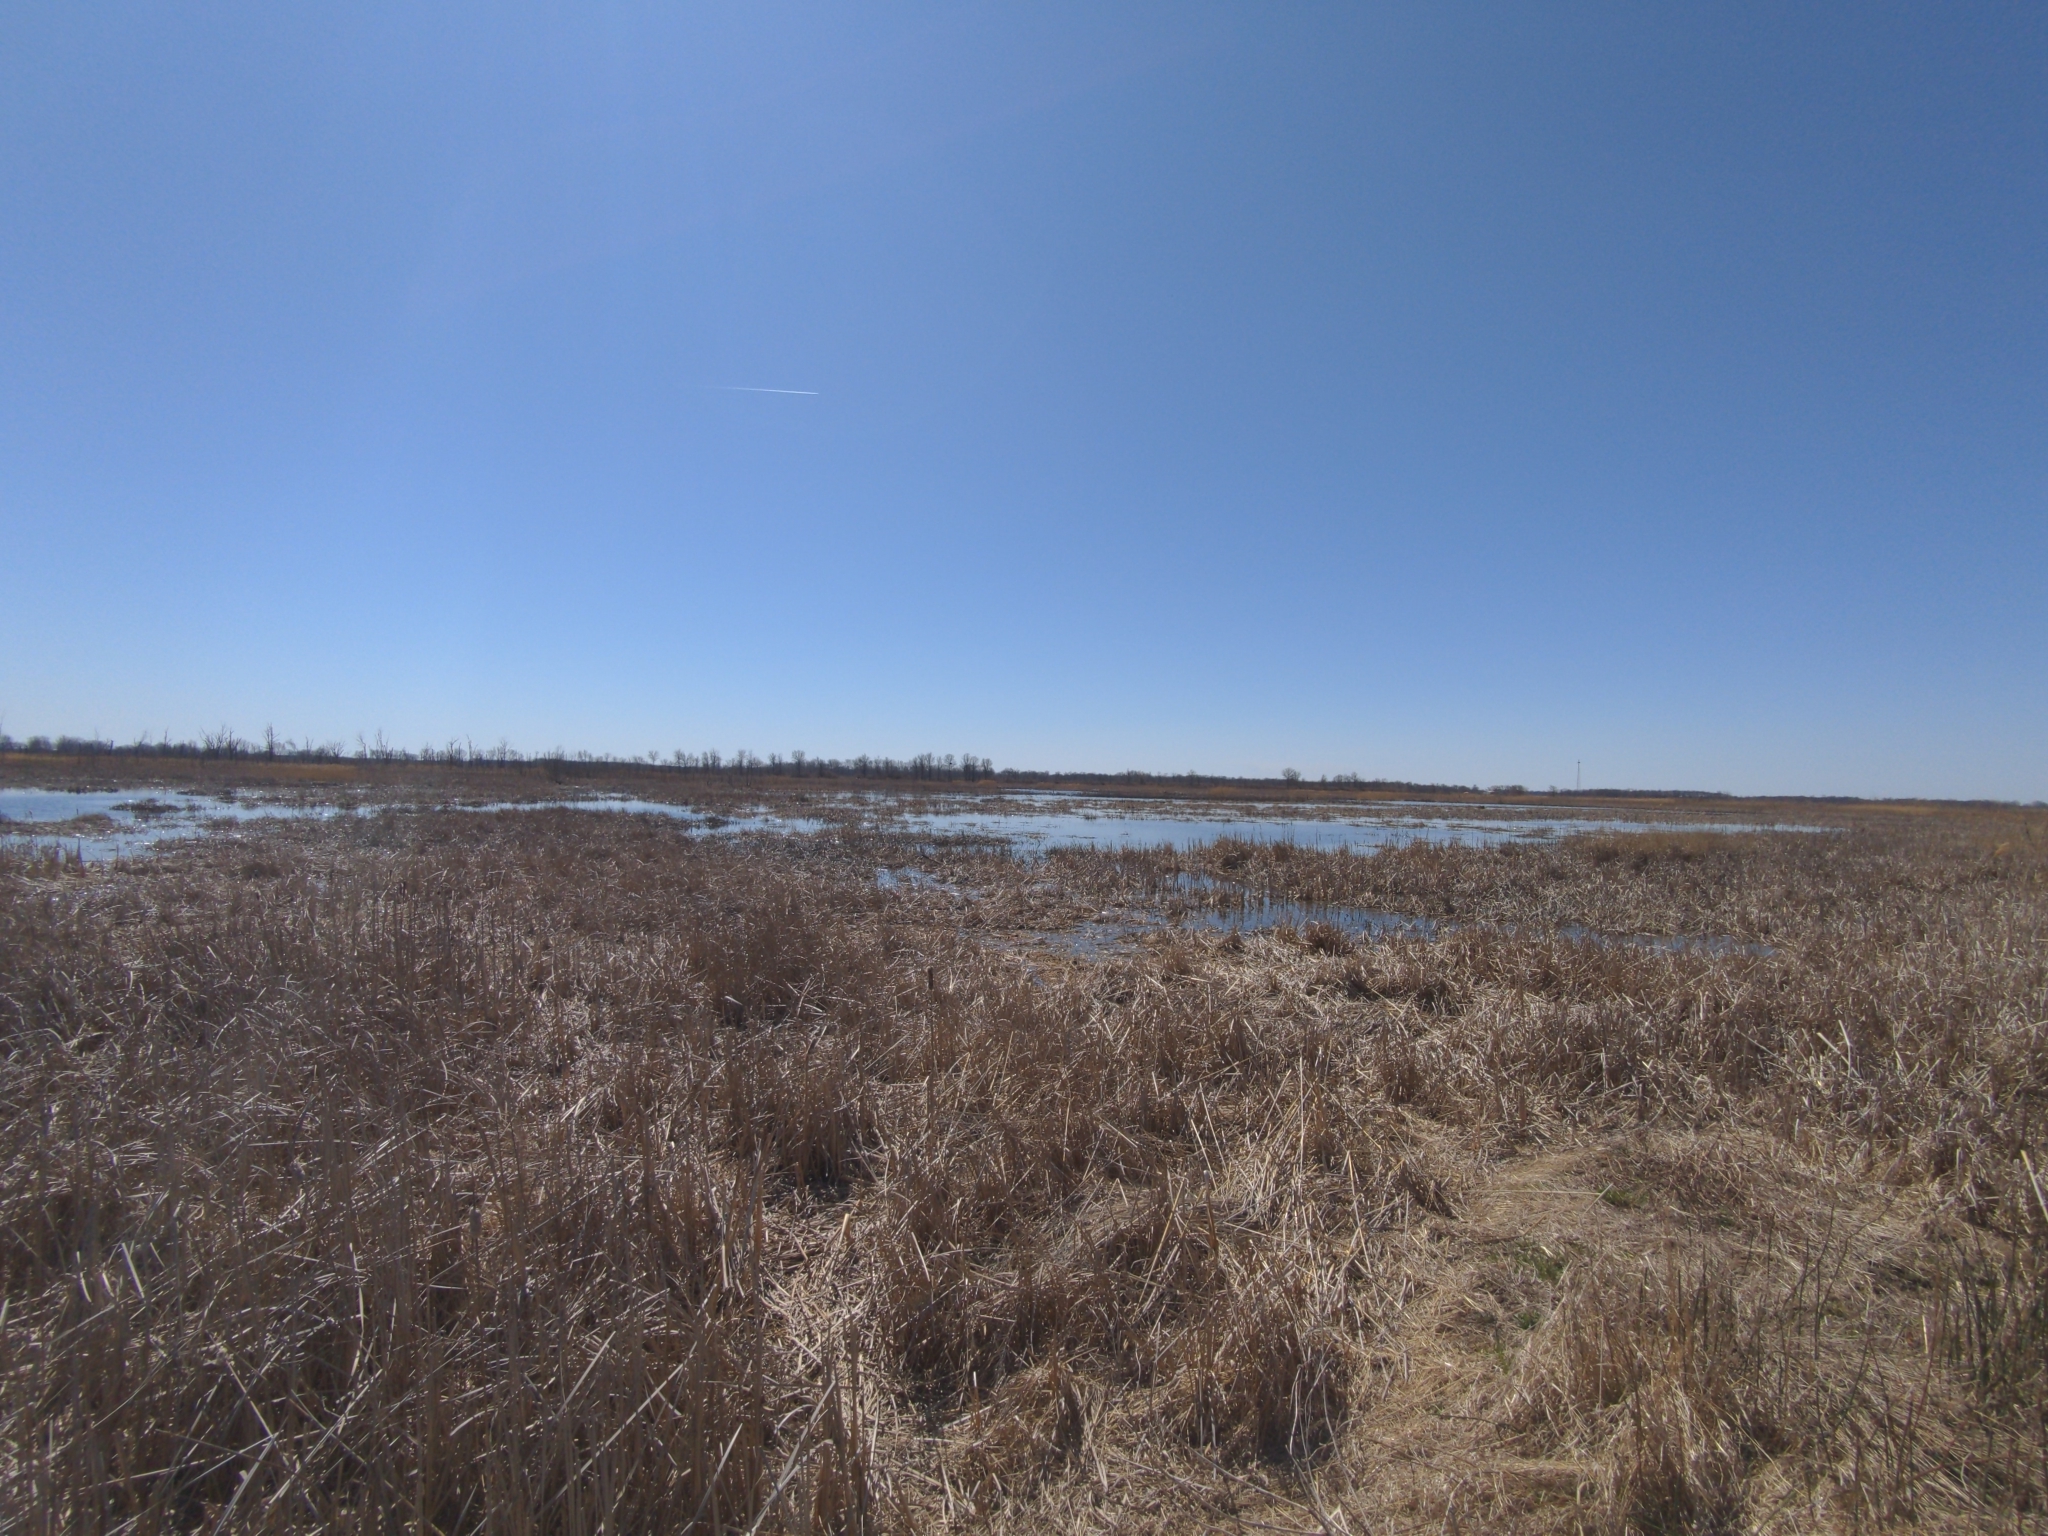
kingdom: Animalia
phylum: Chordata
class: Amphibia
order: Anura
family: Hylidae
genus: Pseudacris
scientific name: Pseudacris maculata
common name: Boreal chorus frog
